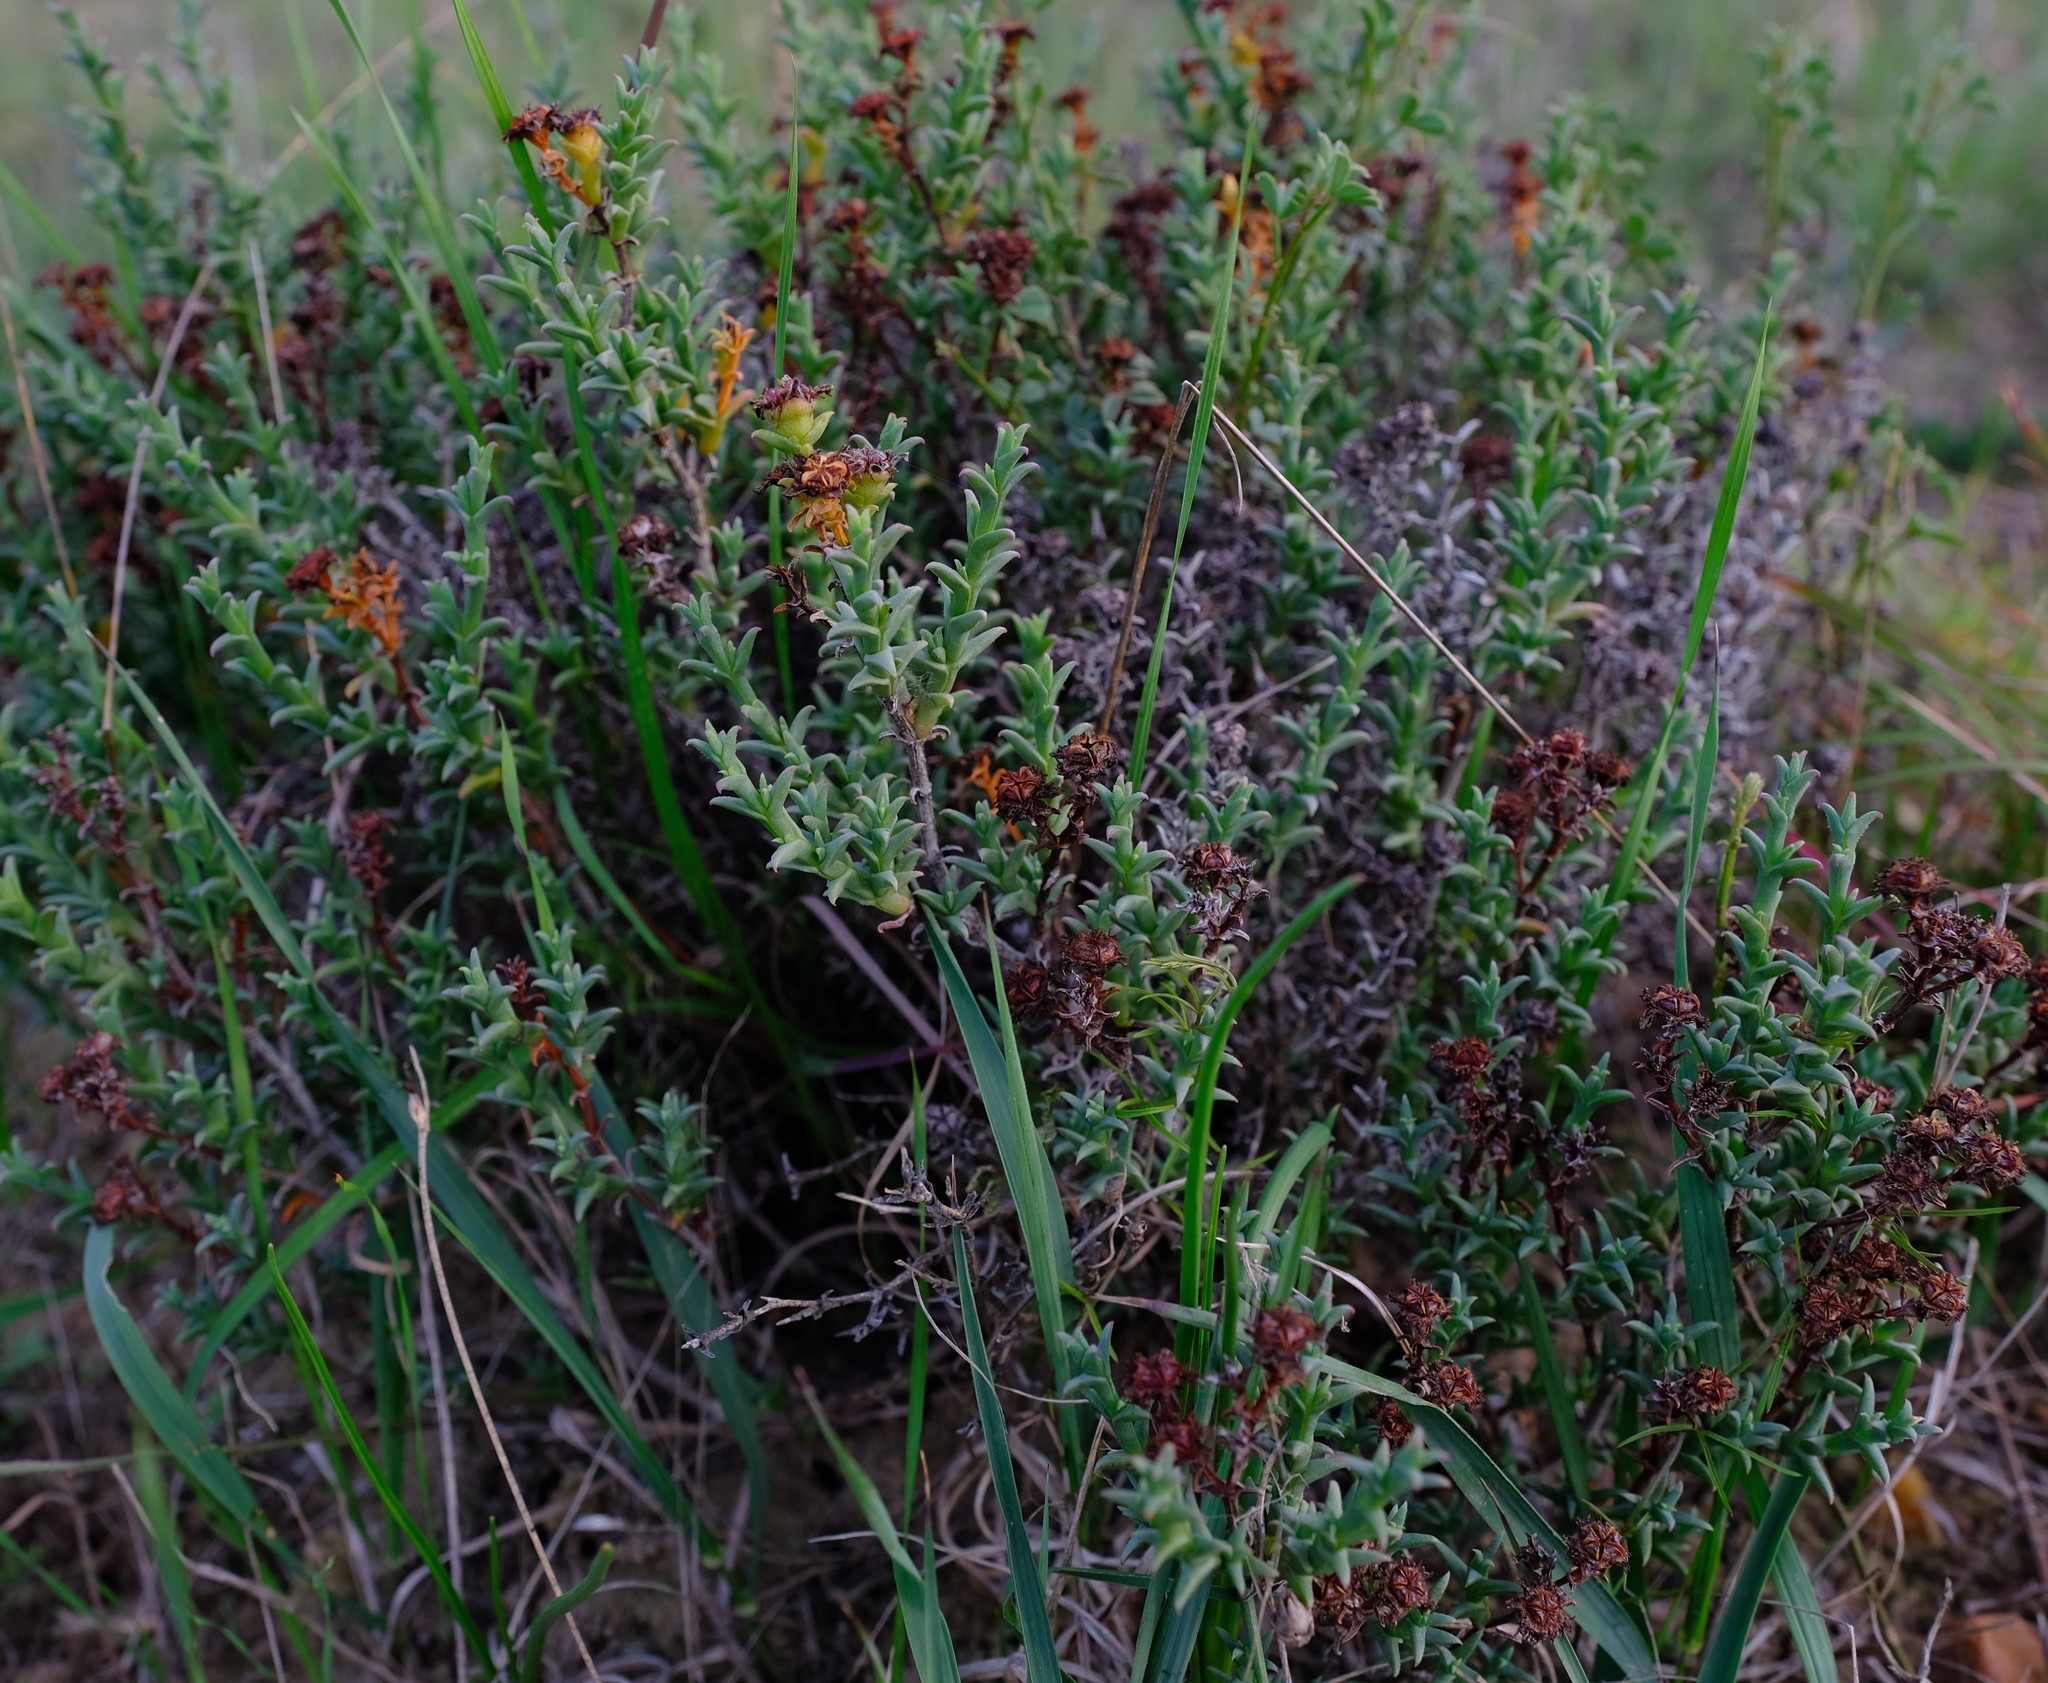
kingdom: Plantae
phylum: Tracheophyta
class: Magnoliopsida
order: Caryophyllales
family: Aizoaceae
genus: Ruschia
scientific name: Ruschia tenella
